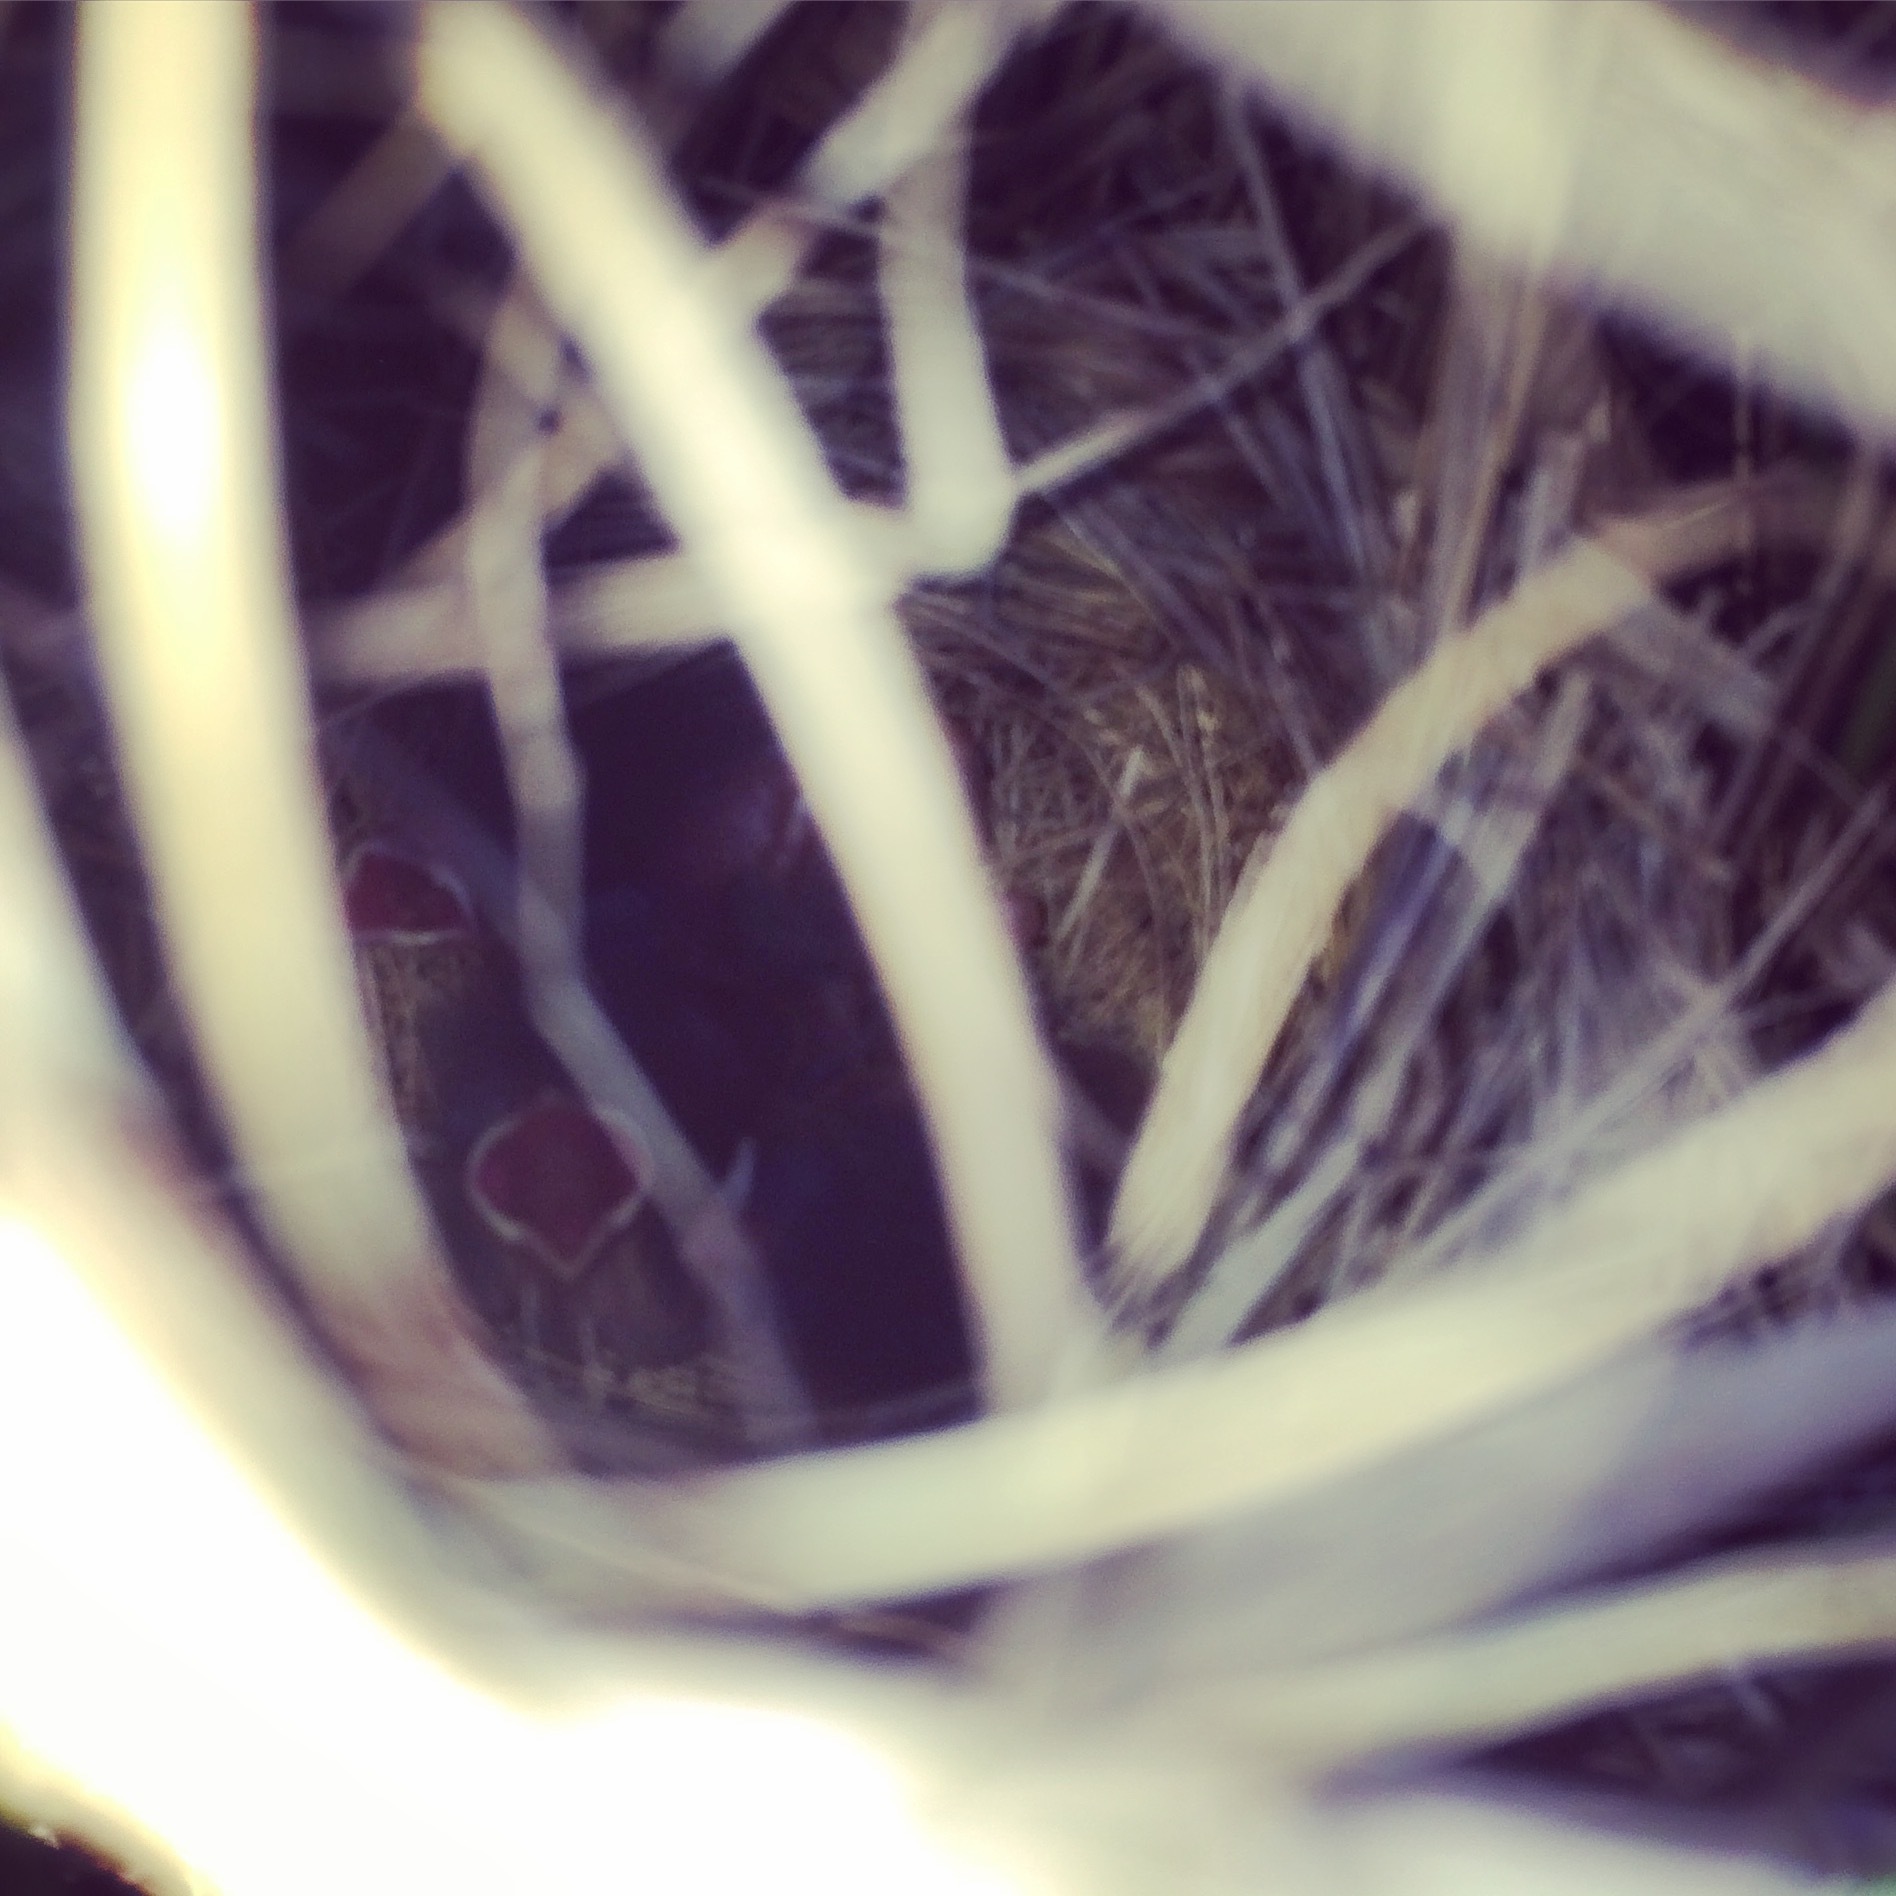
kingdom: Animalia
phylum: Chordata
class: Aves
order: Passeriformes
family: Passerellidae
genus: Ammospiza
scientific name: Ammospiza maritima
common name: Seaside sparrow
